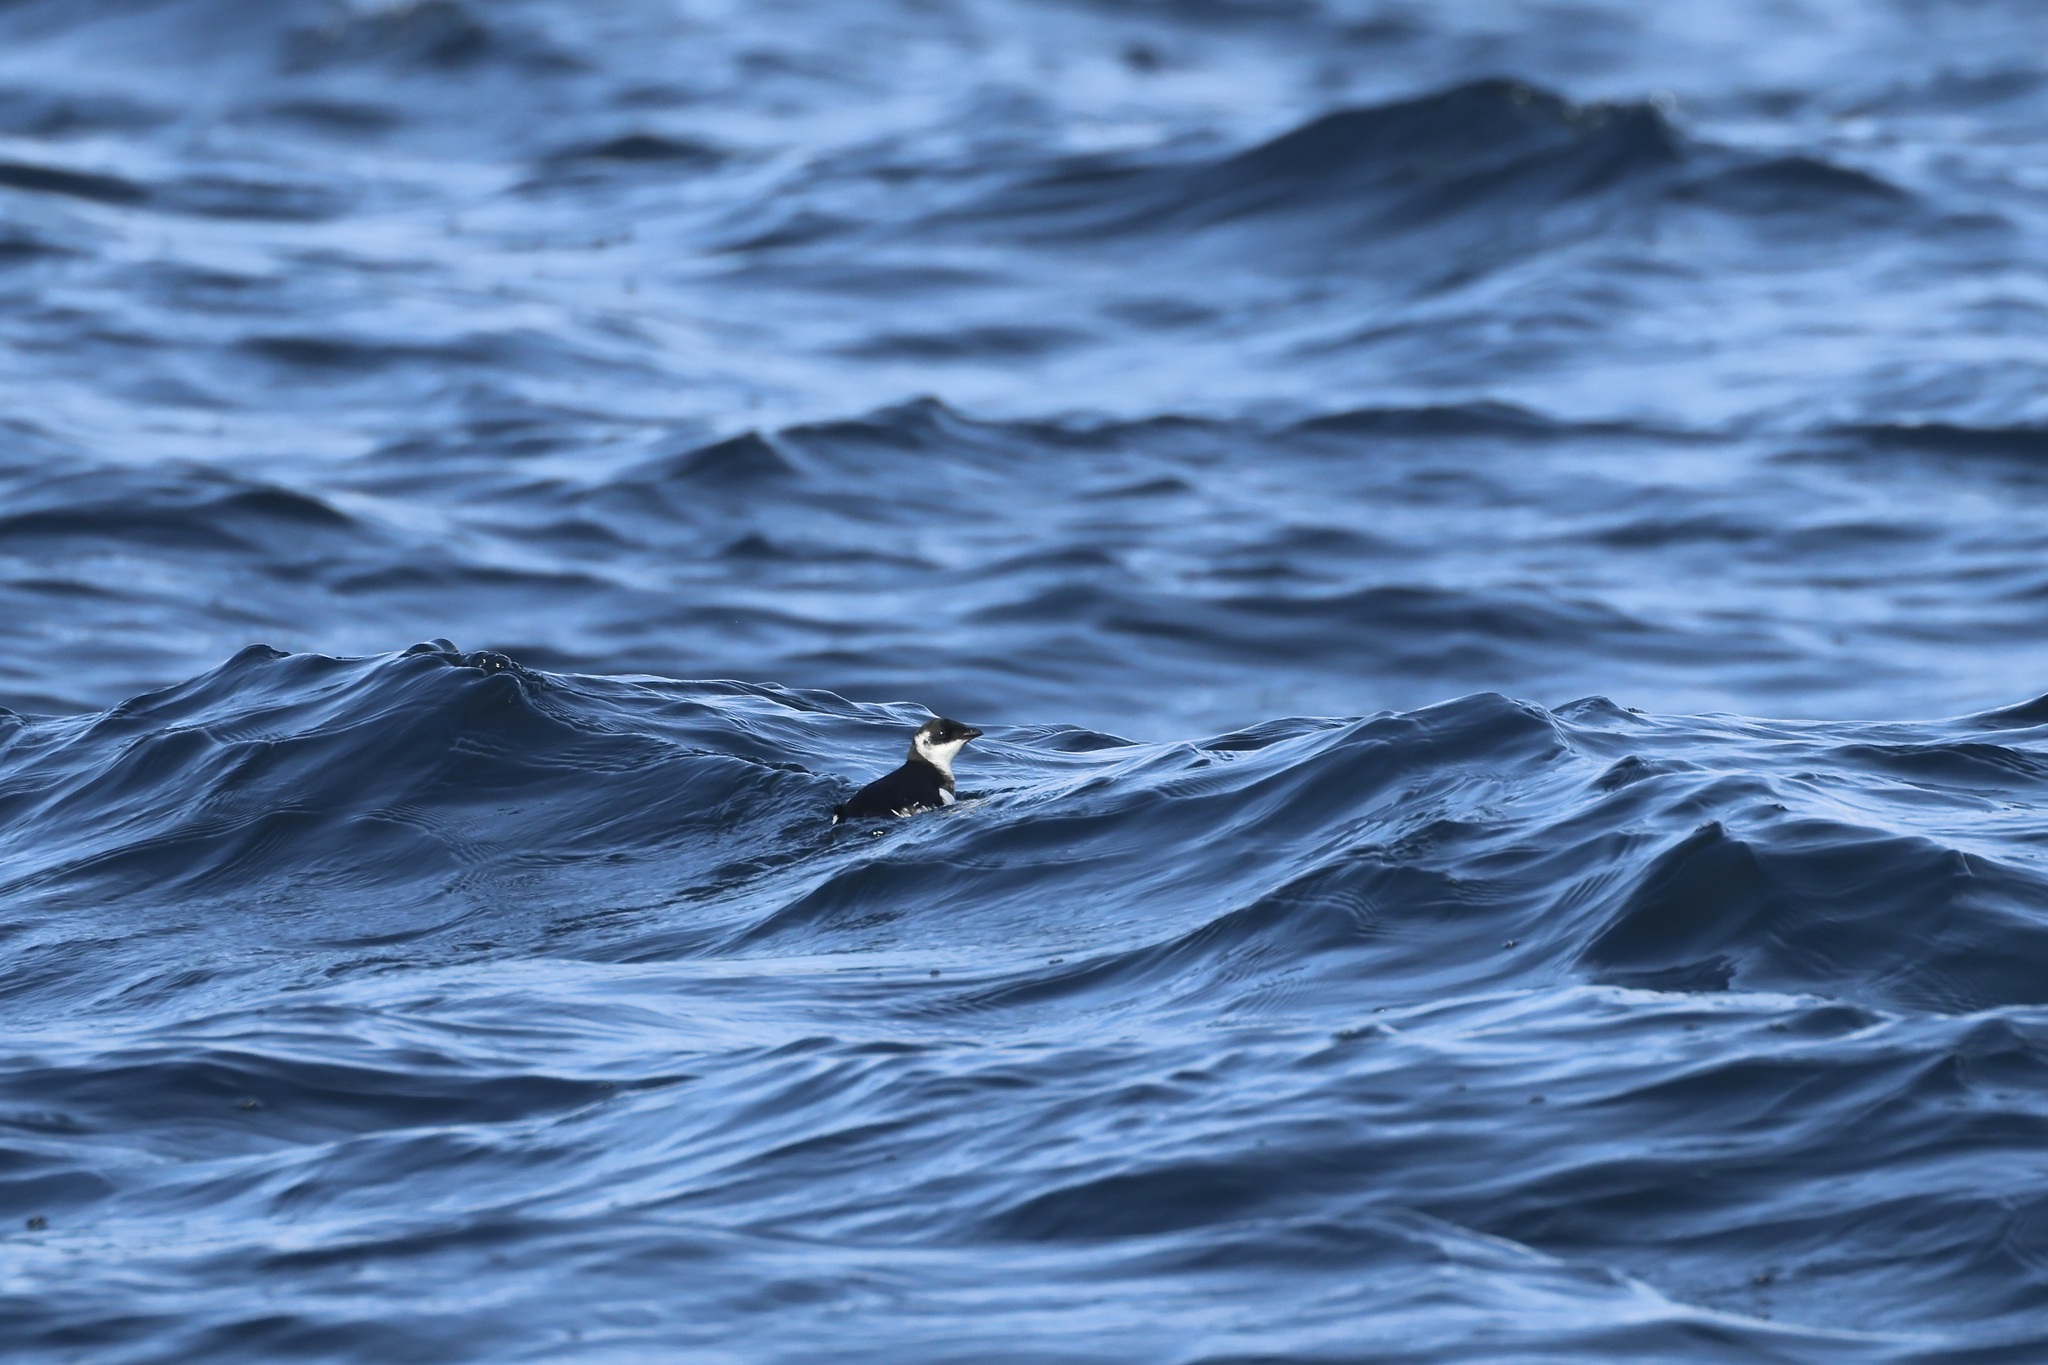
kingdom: Animalia
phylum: Chordata
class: Aves
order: Charadriiformes
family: Alcidae
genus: Alle
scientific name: Alle alle
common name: Little auk
